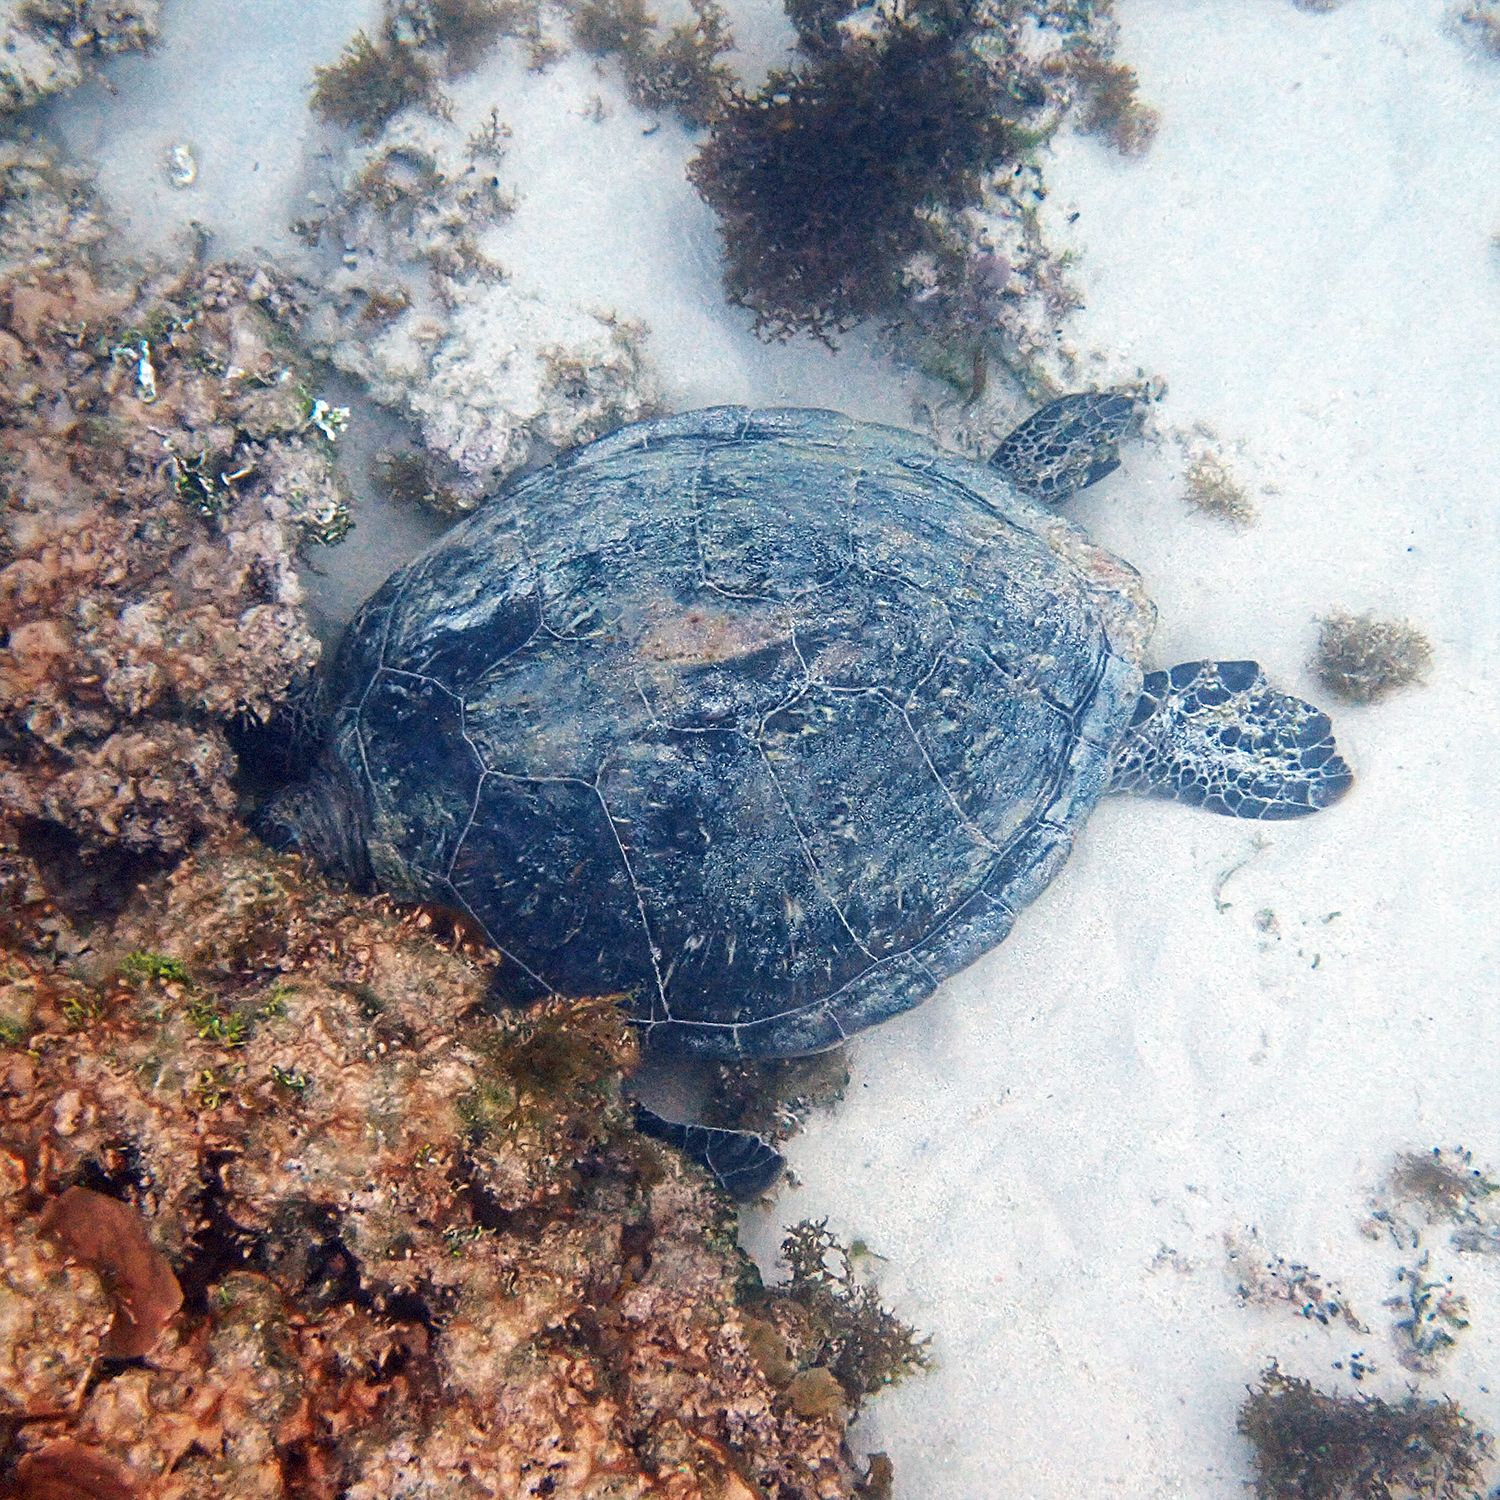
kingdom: Animalia
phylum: Chordata
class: Testudines
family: Cheloniidae
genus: Chelonia
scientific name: Chelonia mydas
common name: Green turtle
